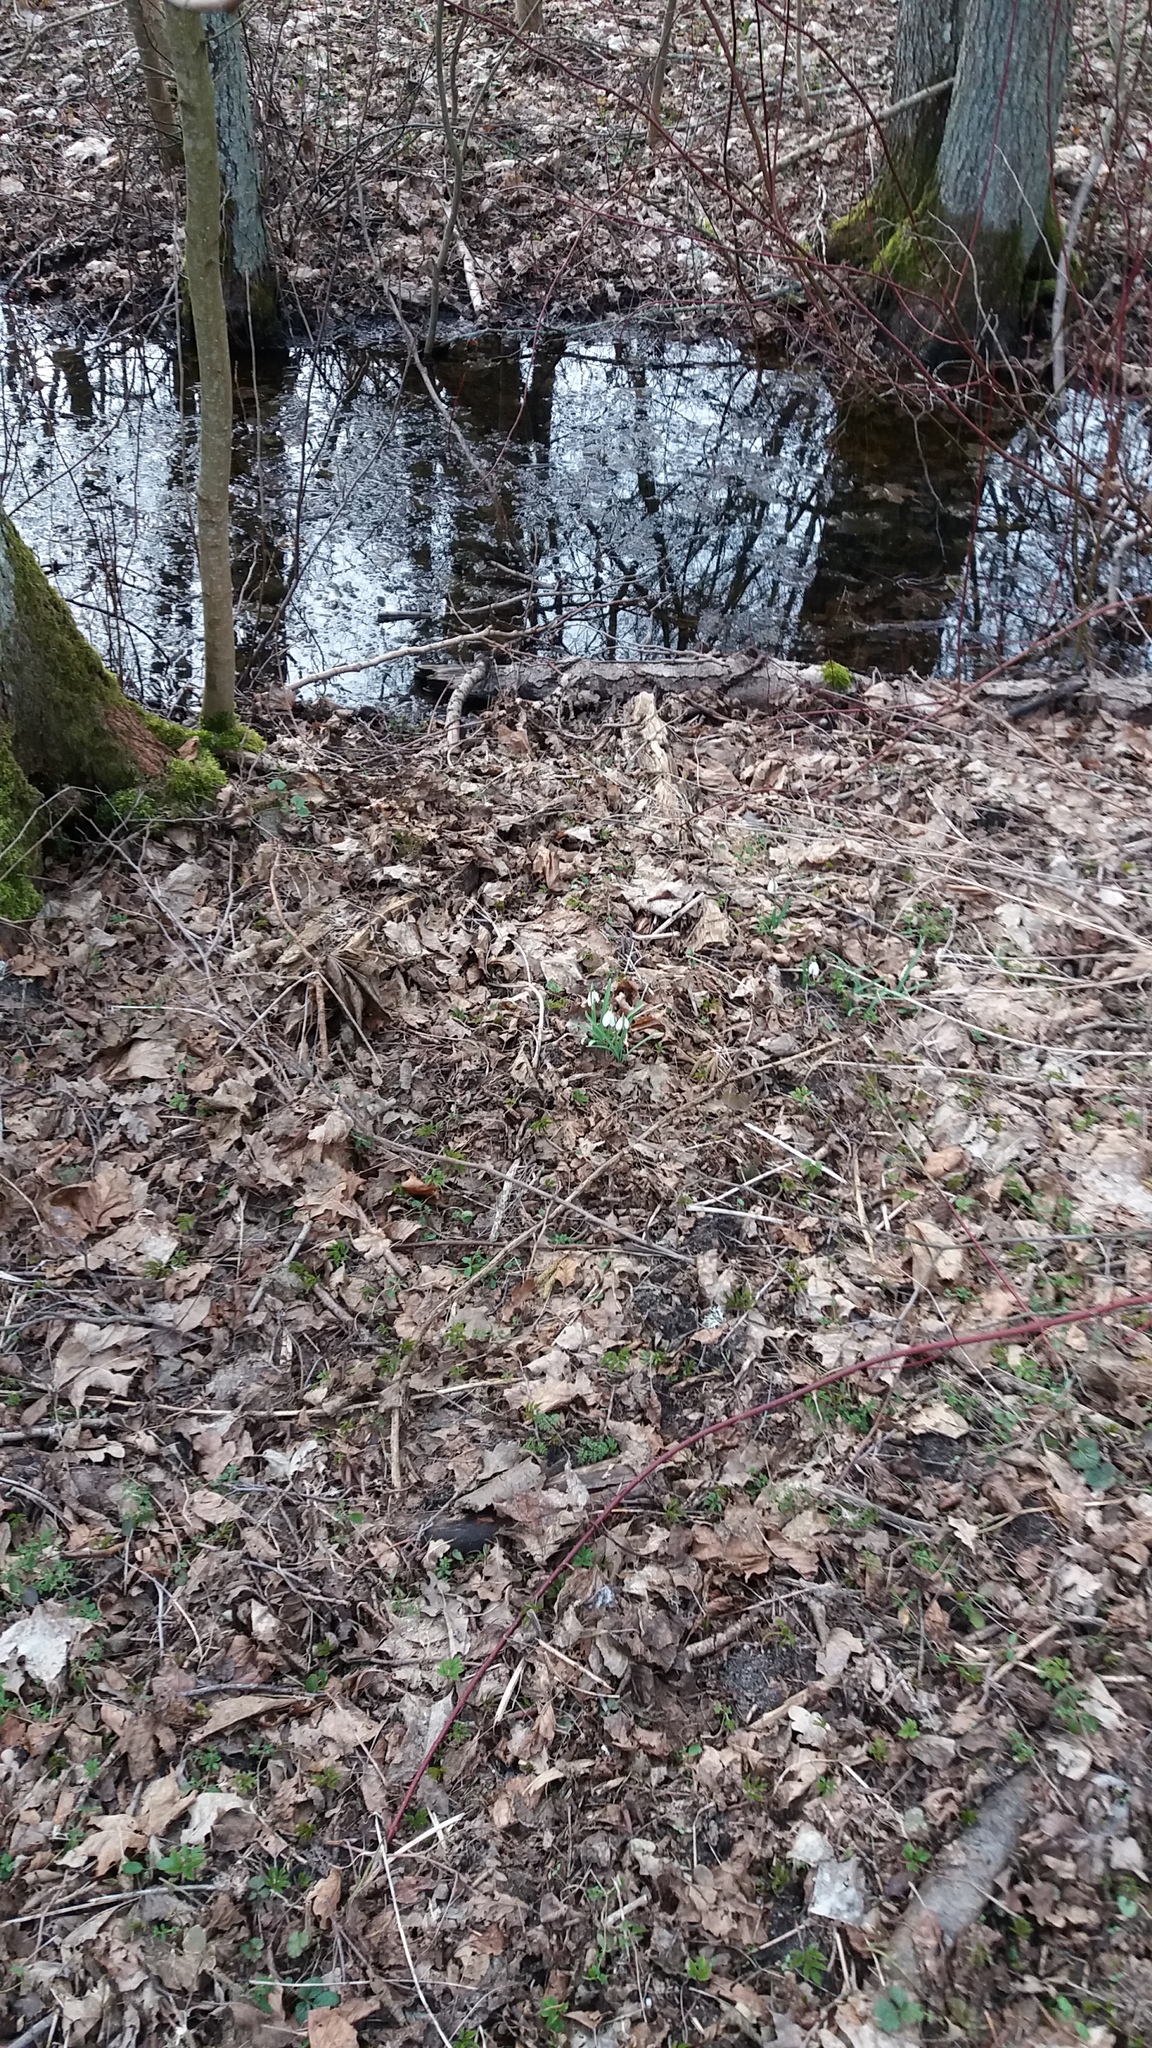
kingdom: Plantae
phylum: Tracheophyta
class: Liliopsida
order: Asparagales
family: Amaryllidaceae
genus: Galanthus
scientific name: Galanthus nivalis
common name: Snowdrop
